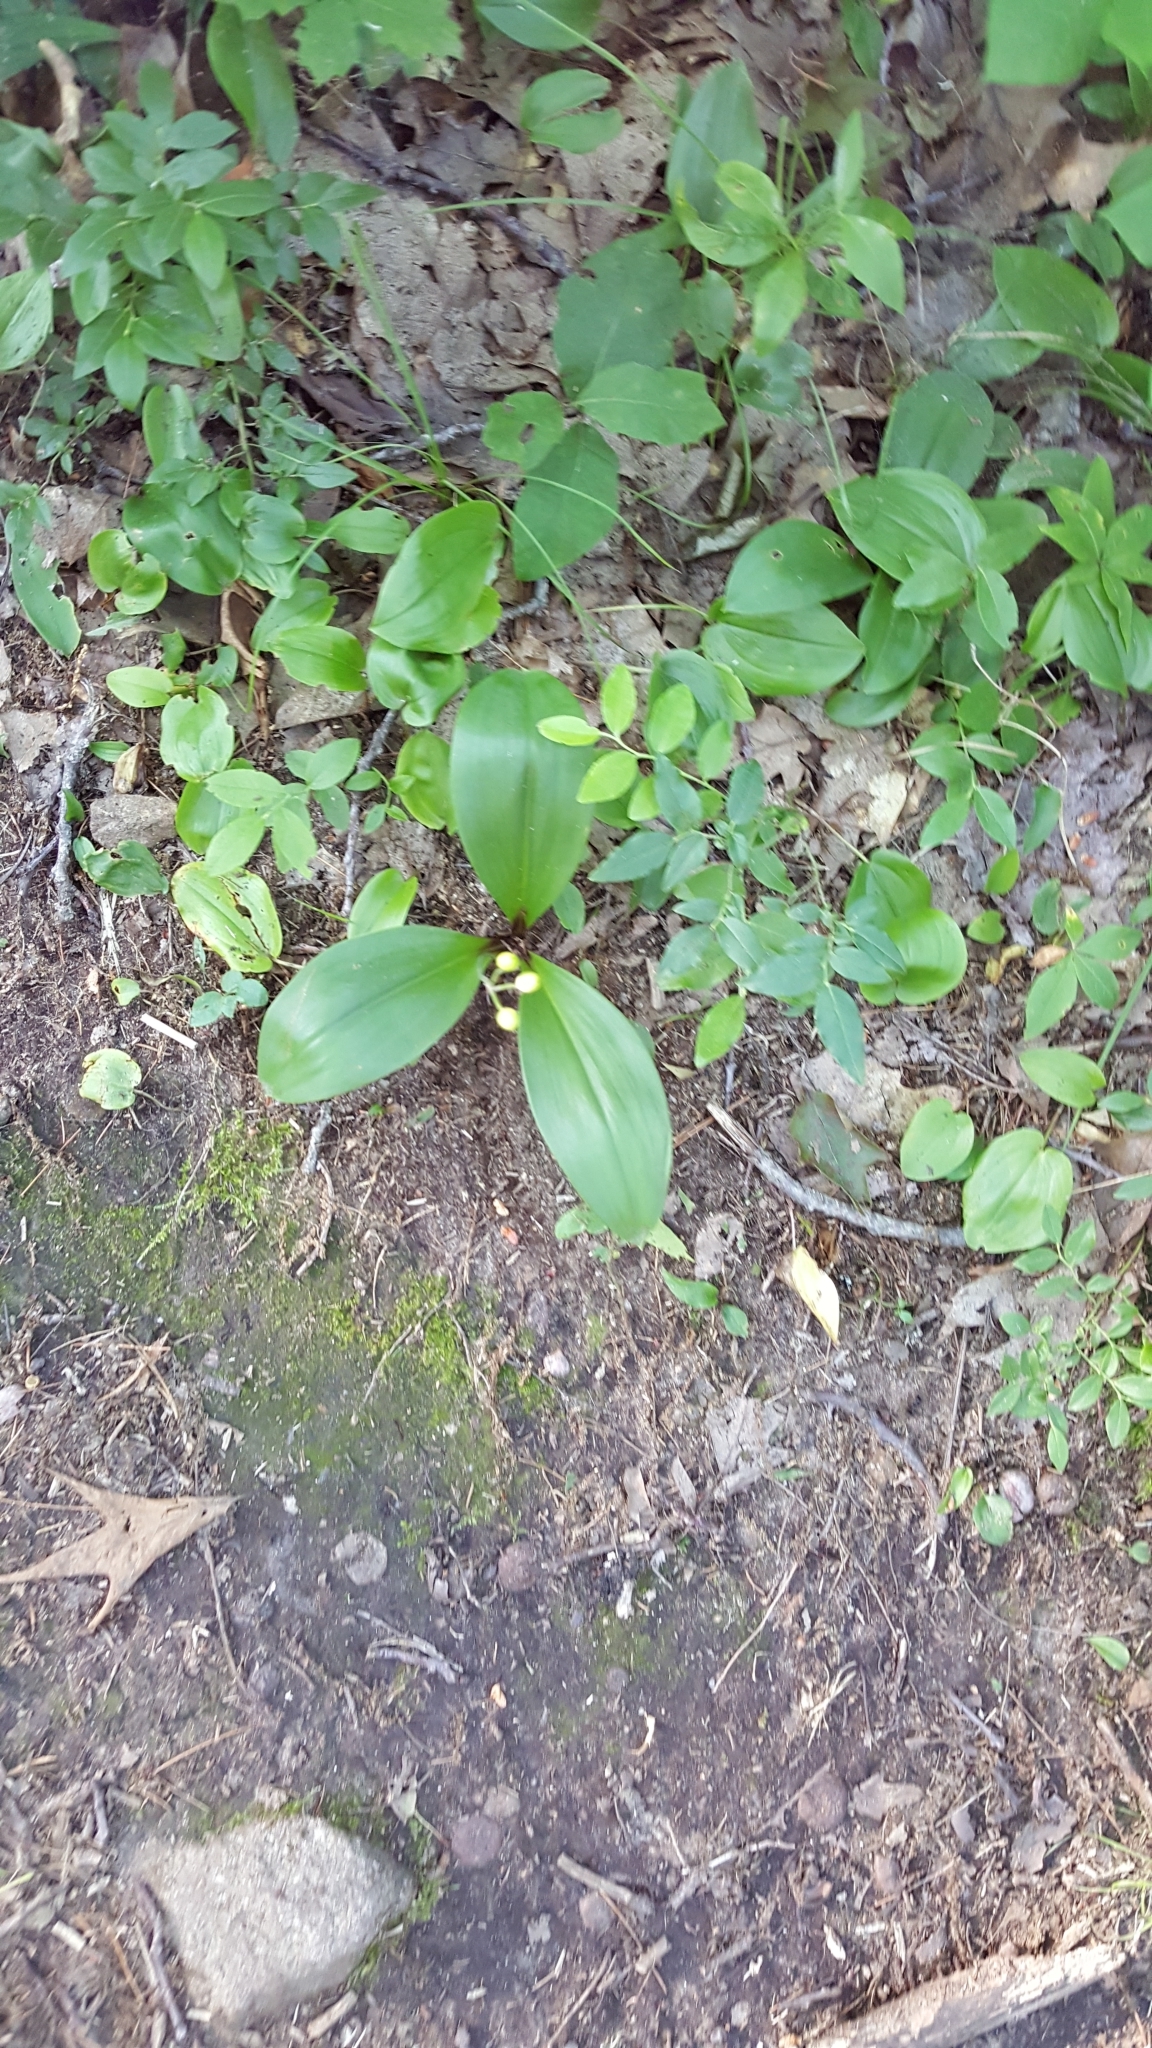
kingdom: Plantae
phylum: Tracheophyta
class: Liliopsida
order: Liliales
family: Liliaceae
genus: Clintonia
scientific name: Clintonia borealis
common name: Yellow clintonia
